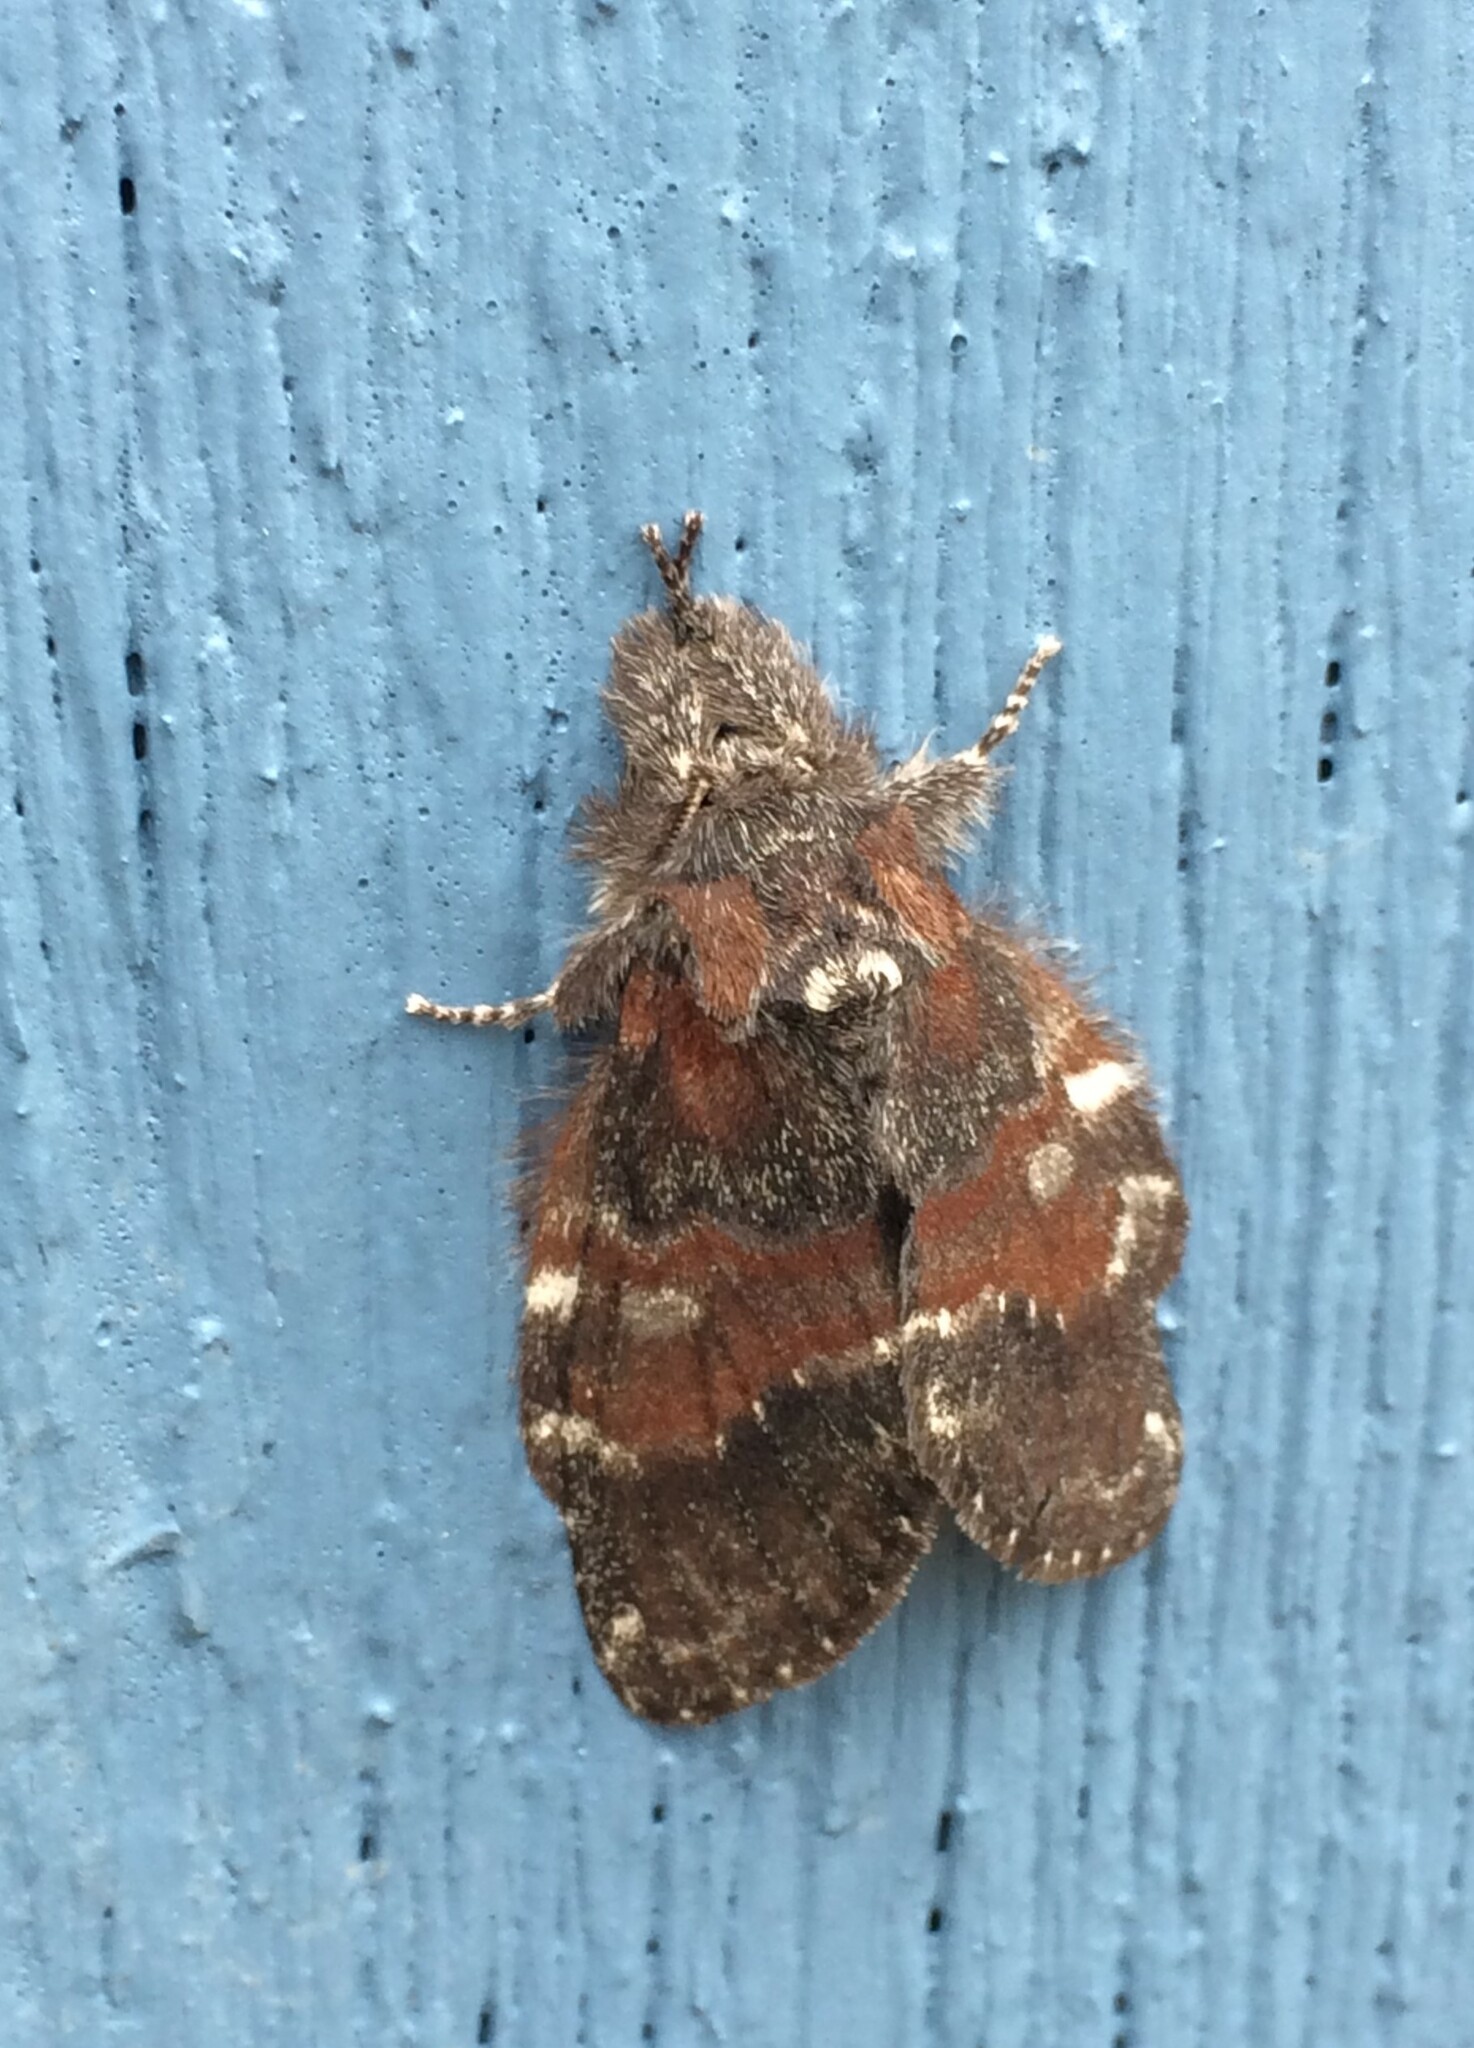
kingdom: Animalia
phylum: Arthropoda
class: Insecta
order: Lepidoptera
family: Notodontidae
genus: Peridea
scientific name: Peridea ferruginea
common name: Chocolate prominent
